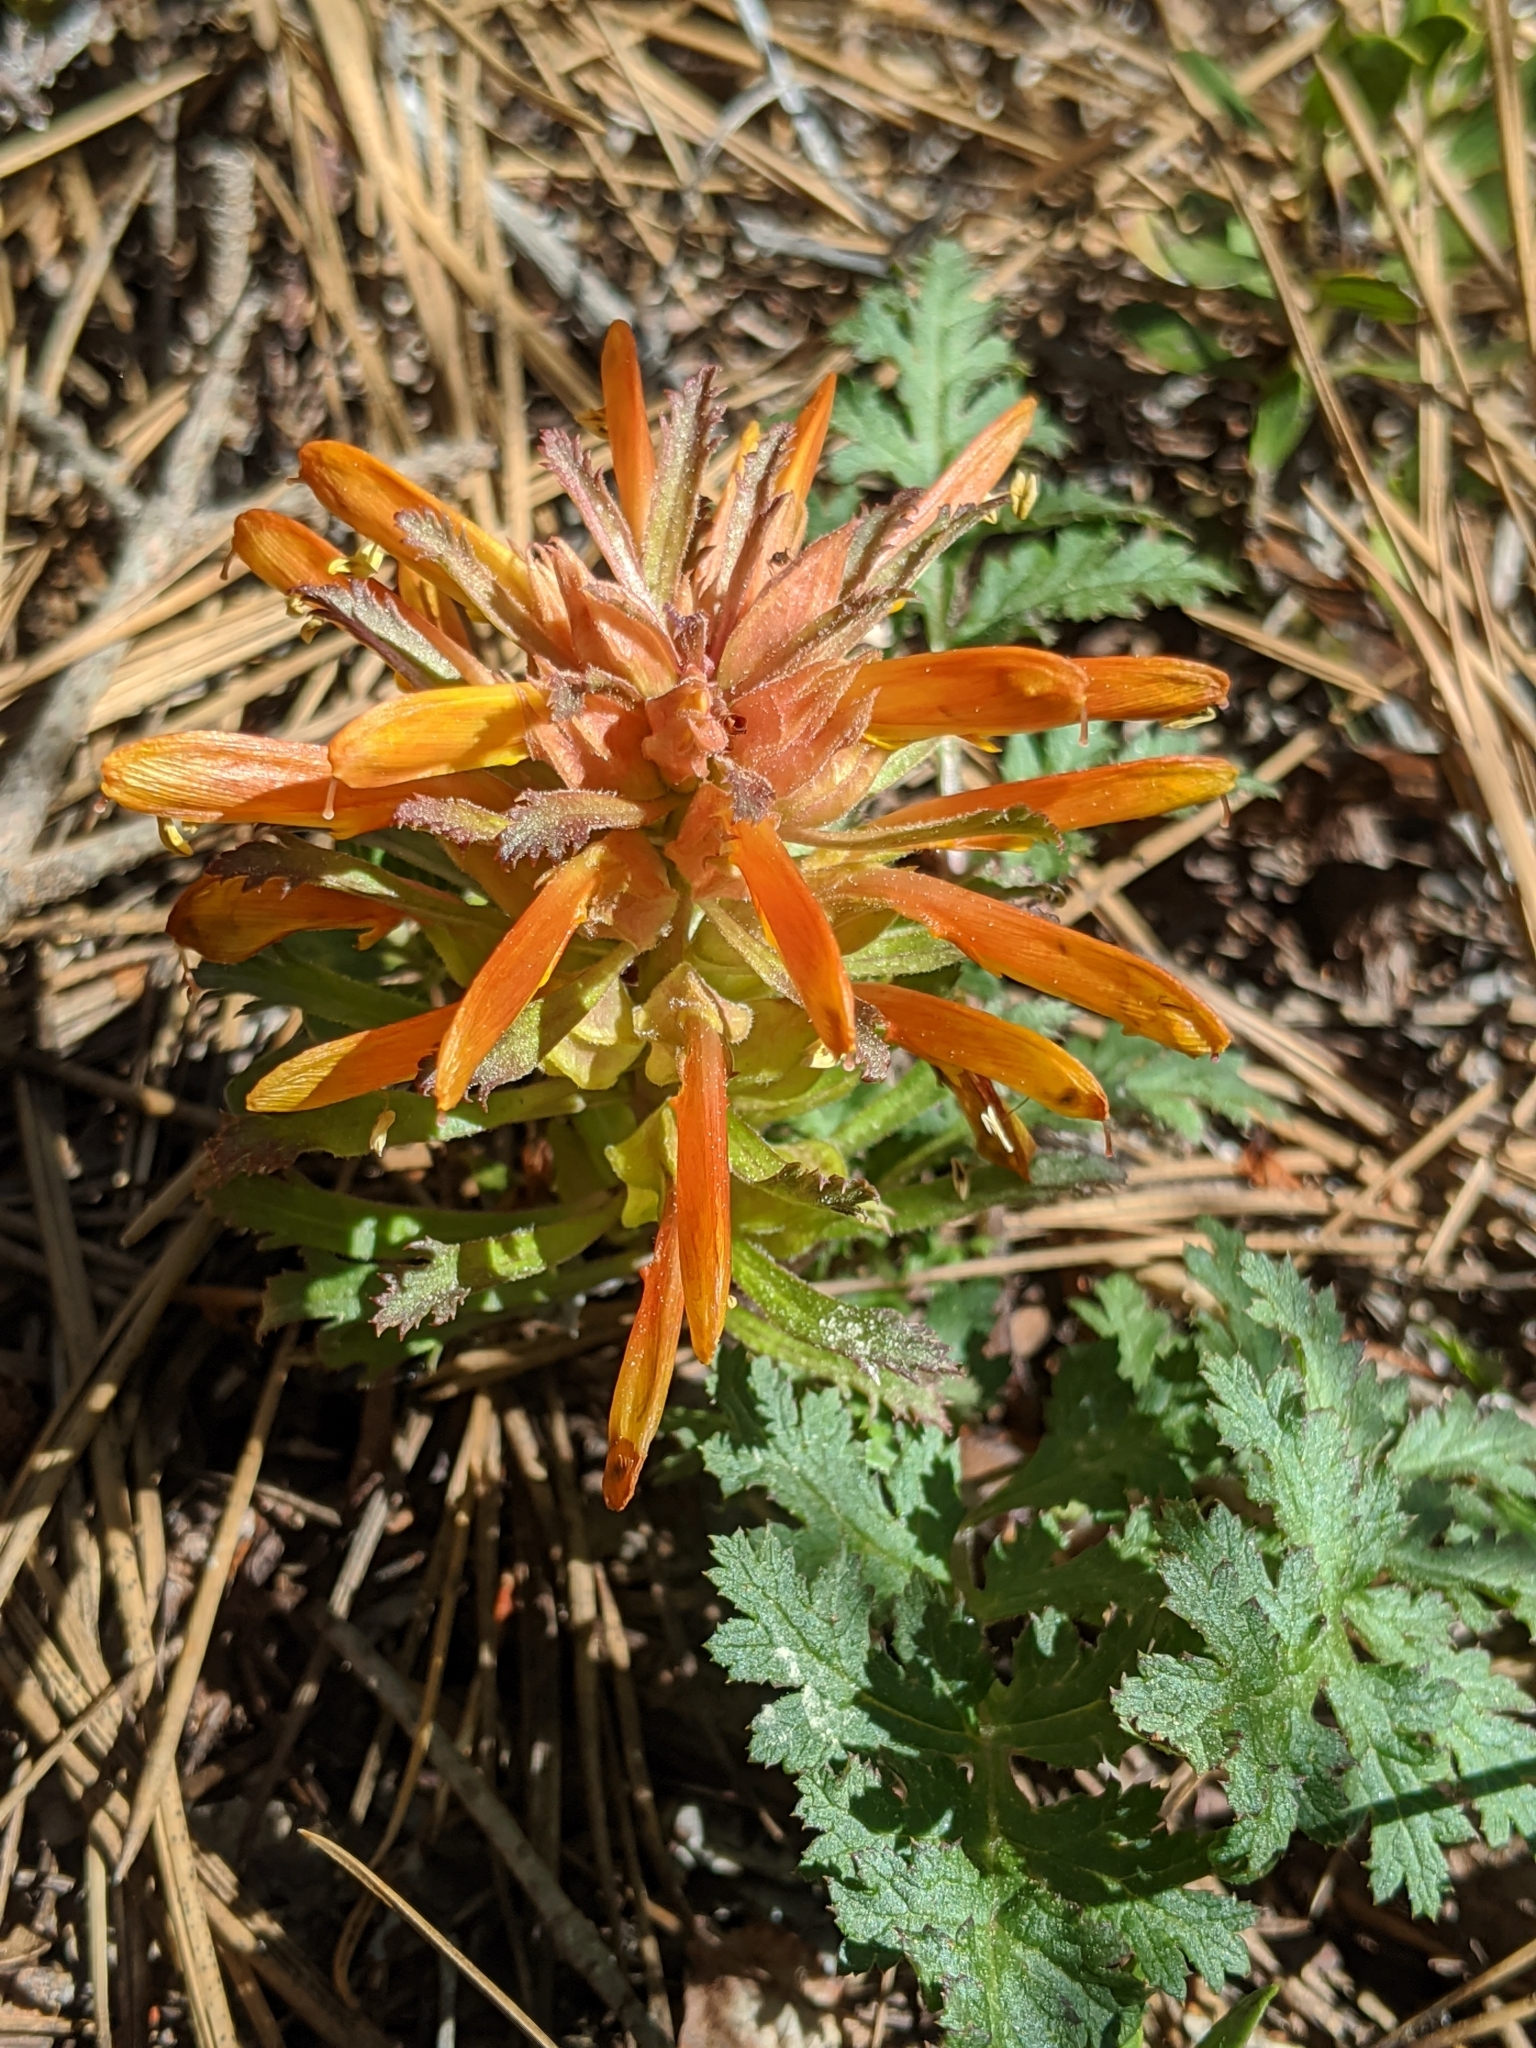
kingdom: Plantae
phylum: Tracheophyta
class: Magnoliopsida
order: Lamiales
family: Orobanchaceae
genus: Pedicularis
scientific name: Pedicularis densiflora
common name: Indian warrior
